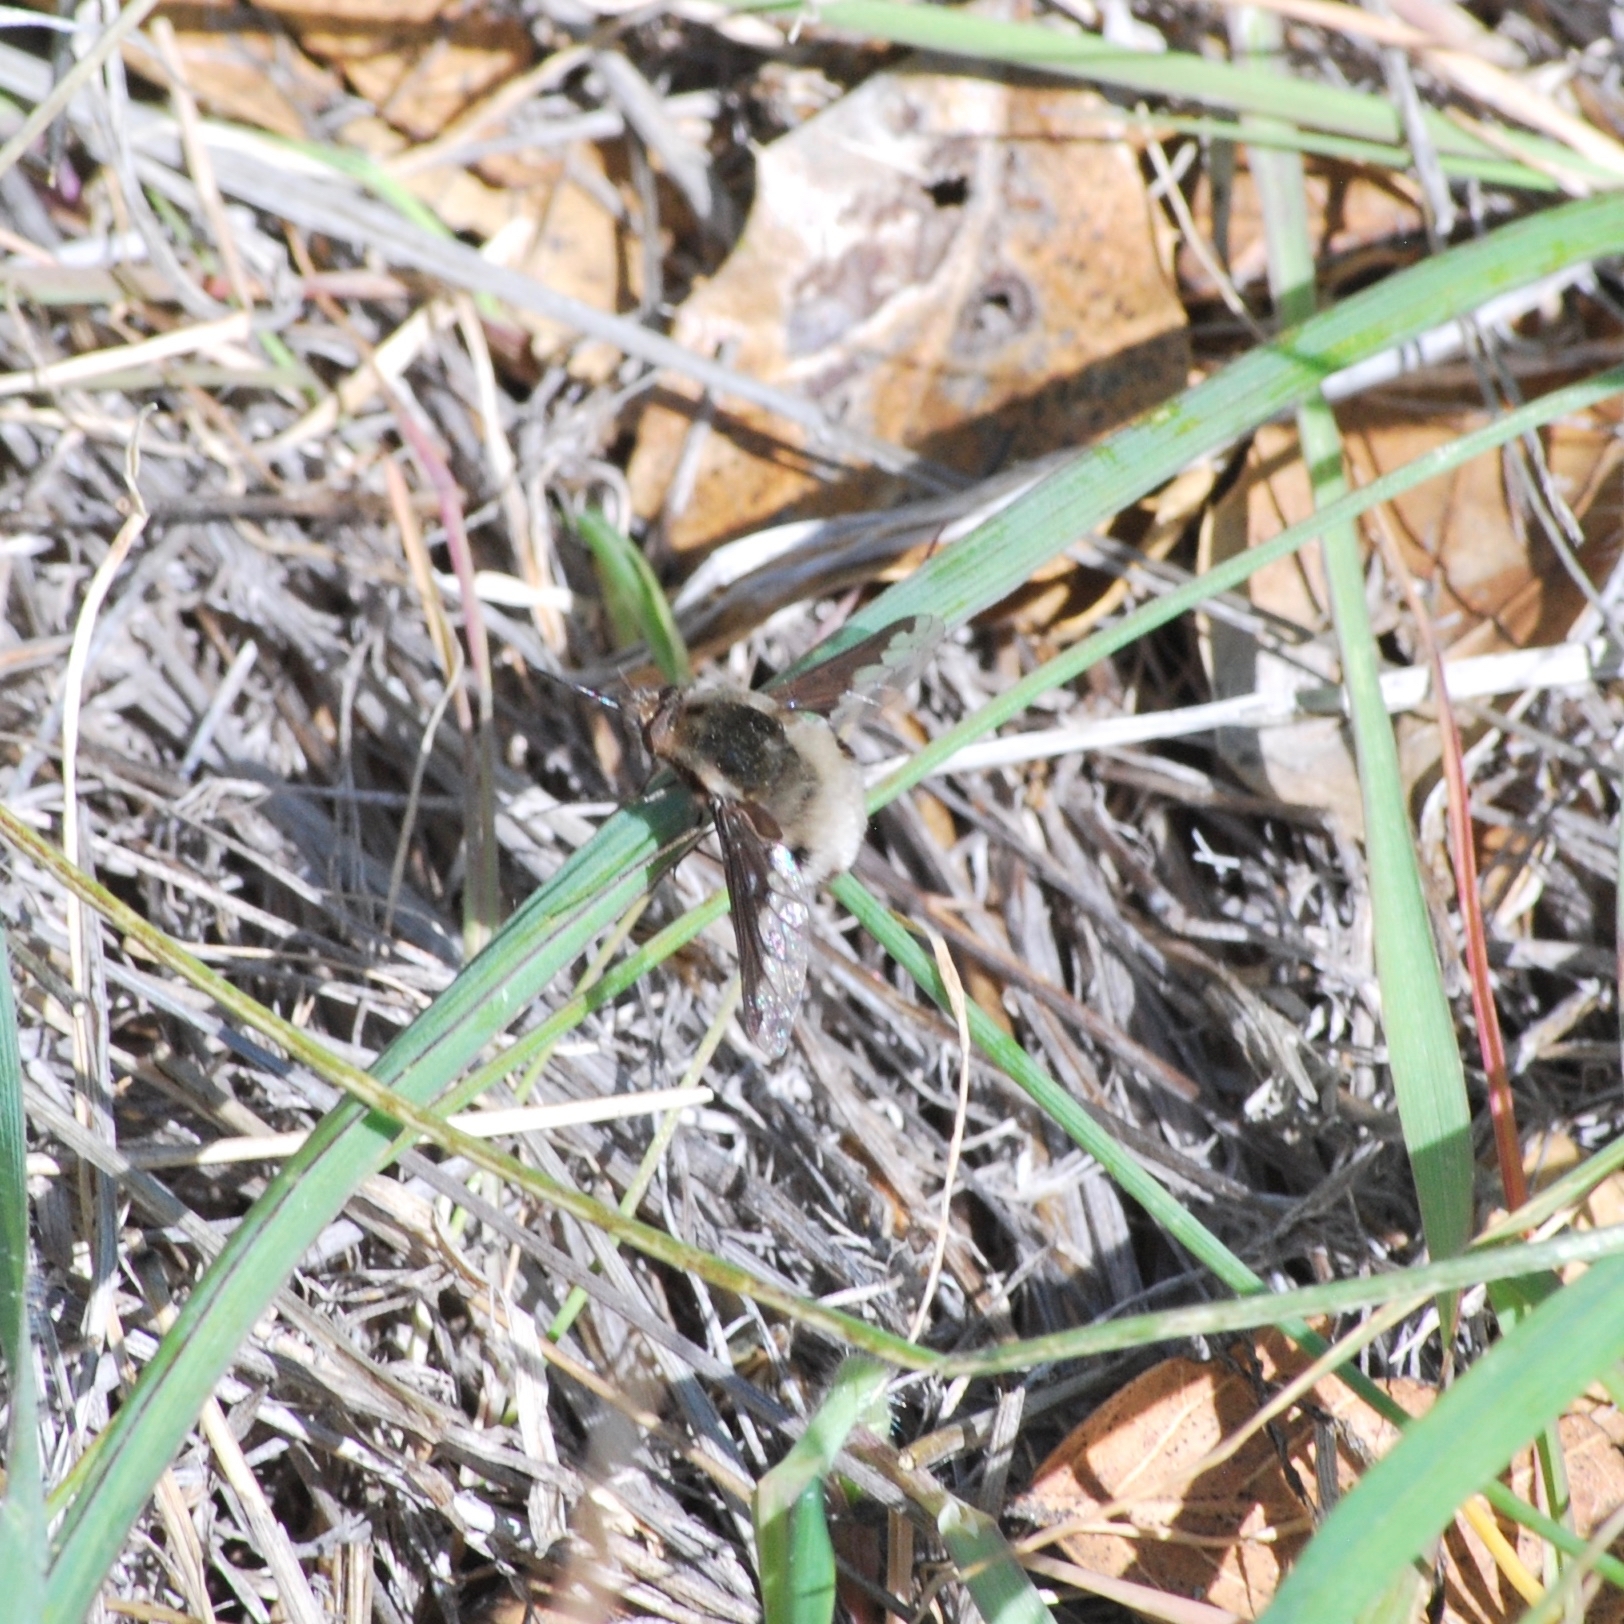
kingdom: Animalia
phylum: Arthropoda
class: Insecta
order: Diptera
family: Bombyliidae
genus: Bombylius
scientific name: Bombylius major
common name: Bee fly
